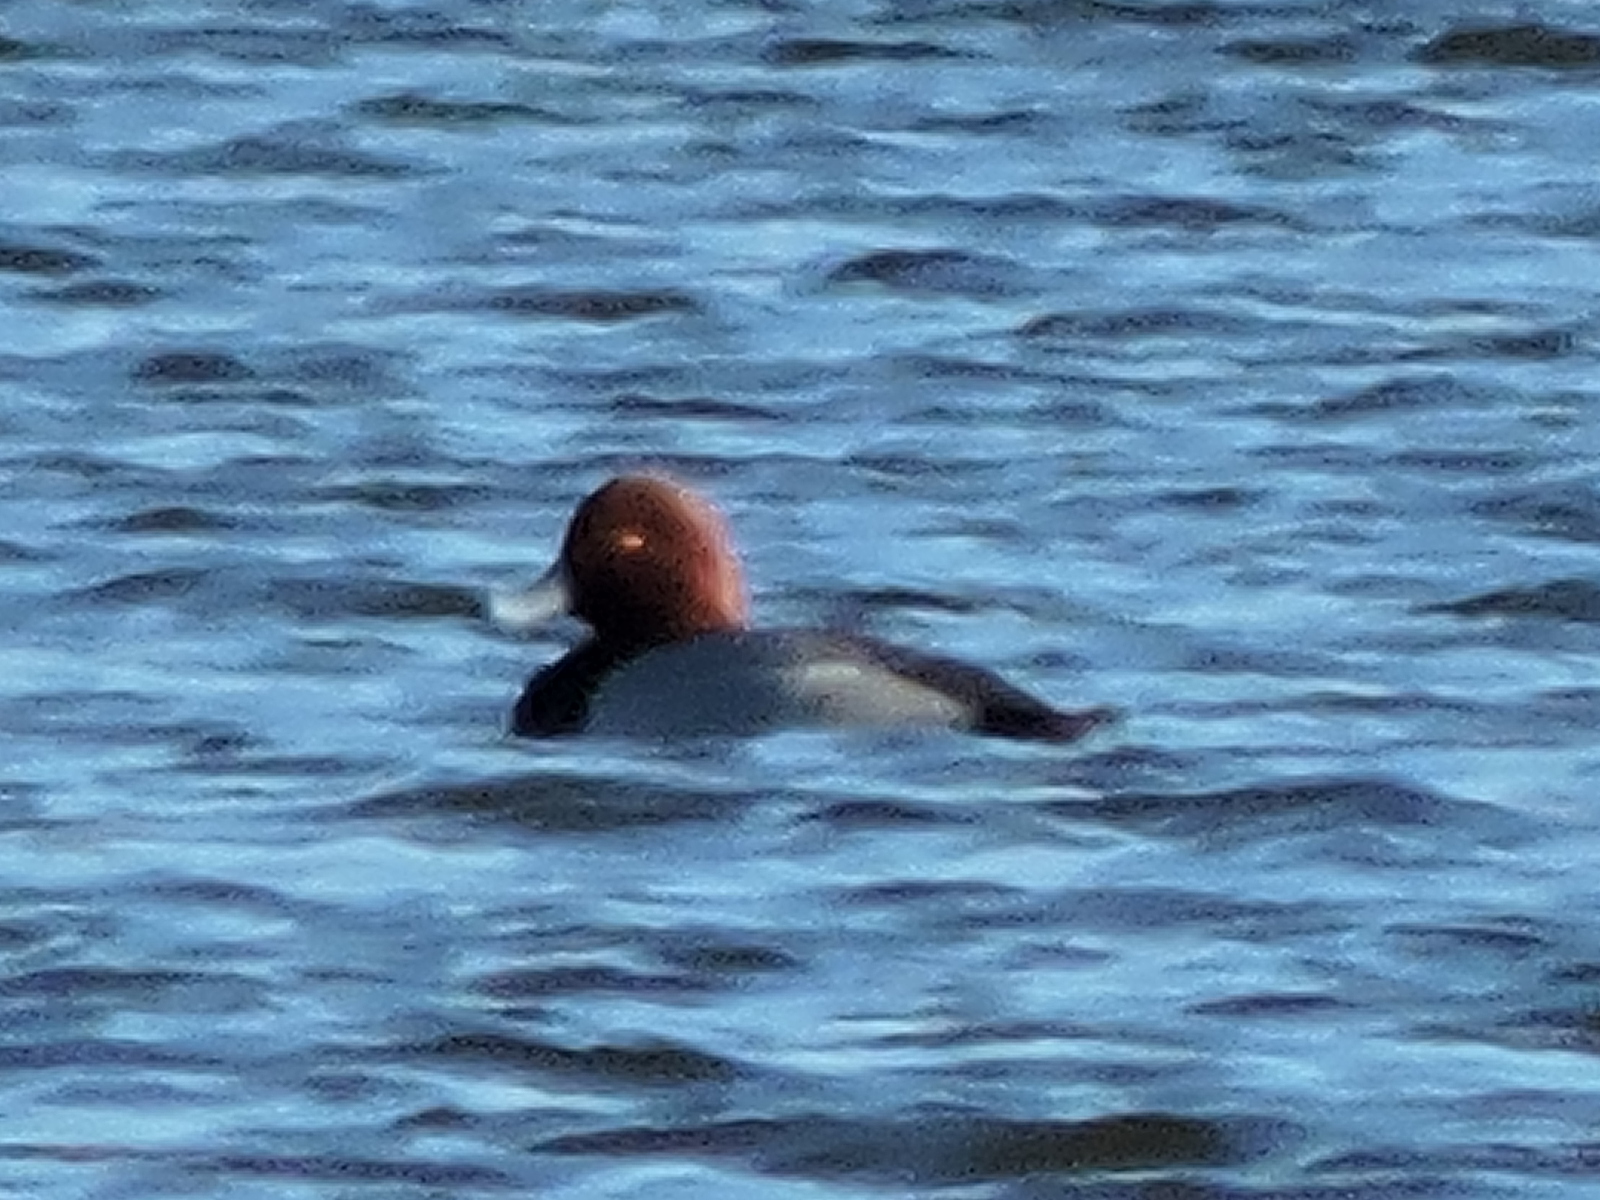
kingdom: Animalia
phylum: Chordata
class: Aves
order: Anseriformes
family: Anatidae
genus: Aythya
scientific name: Aythya americana
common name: Redhead
